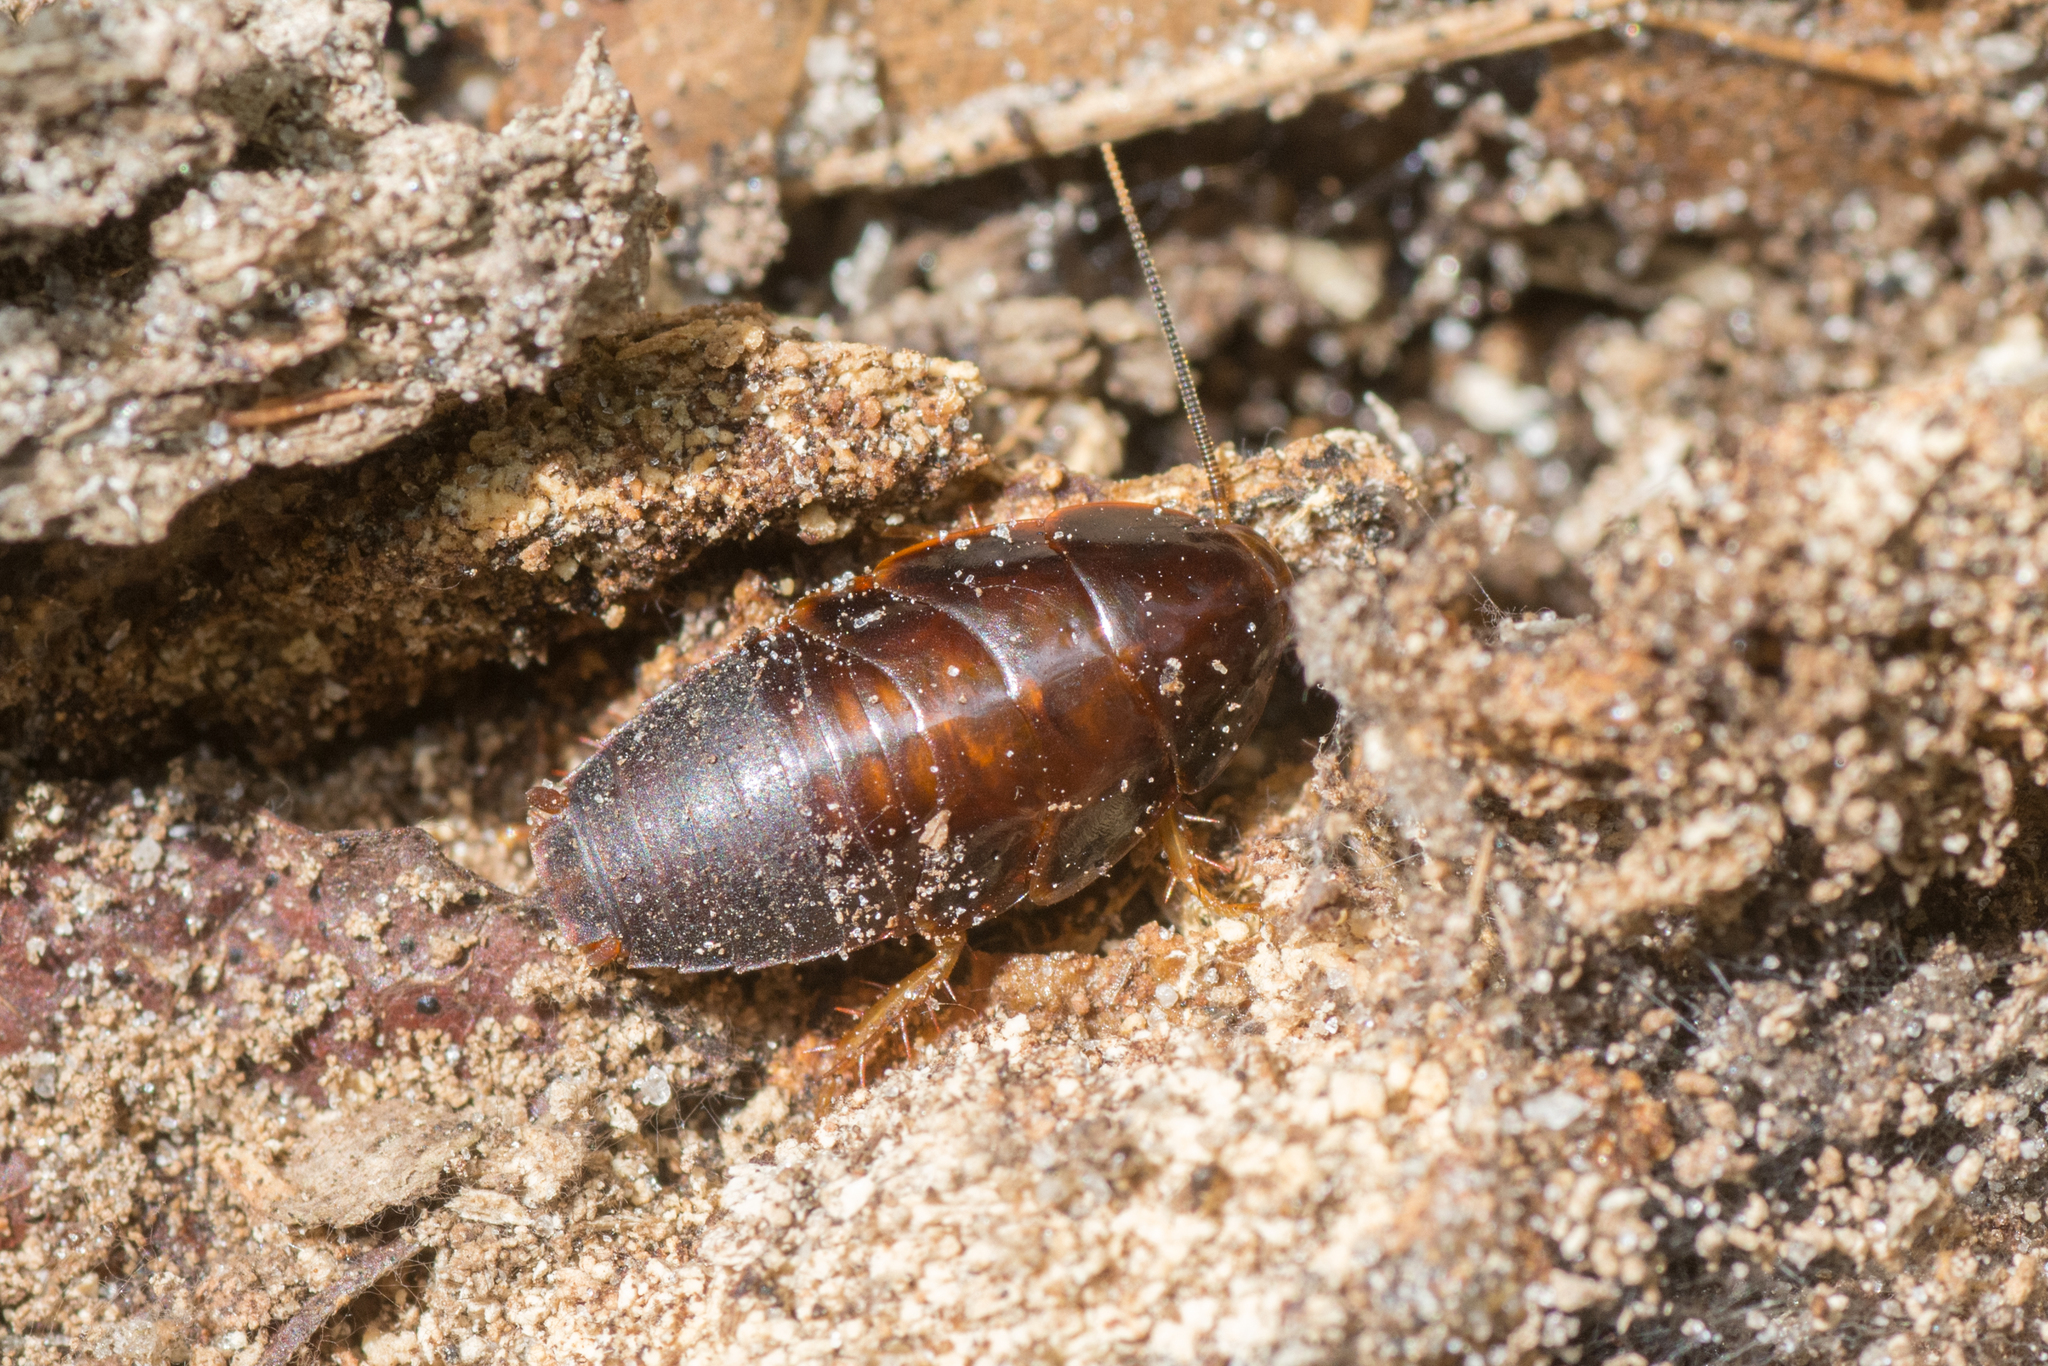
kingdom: Animalia
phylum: Arthropoda
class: Insecta
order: Blattodea
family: Blaberidae
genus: Panchlora
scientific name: Panchlora nivea
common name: Cuban cockroach
